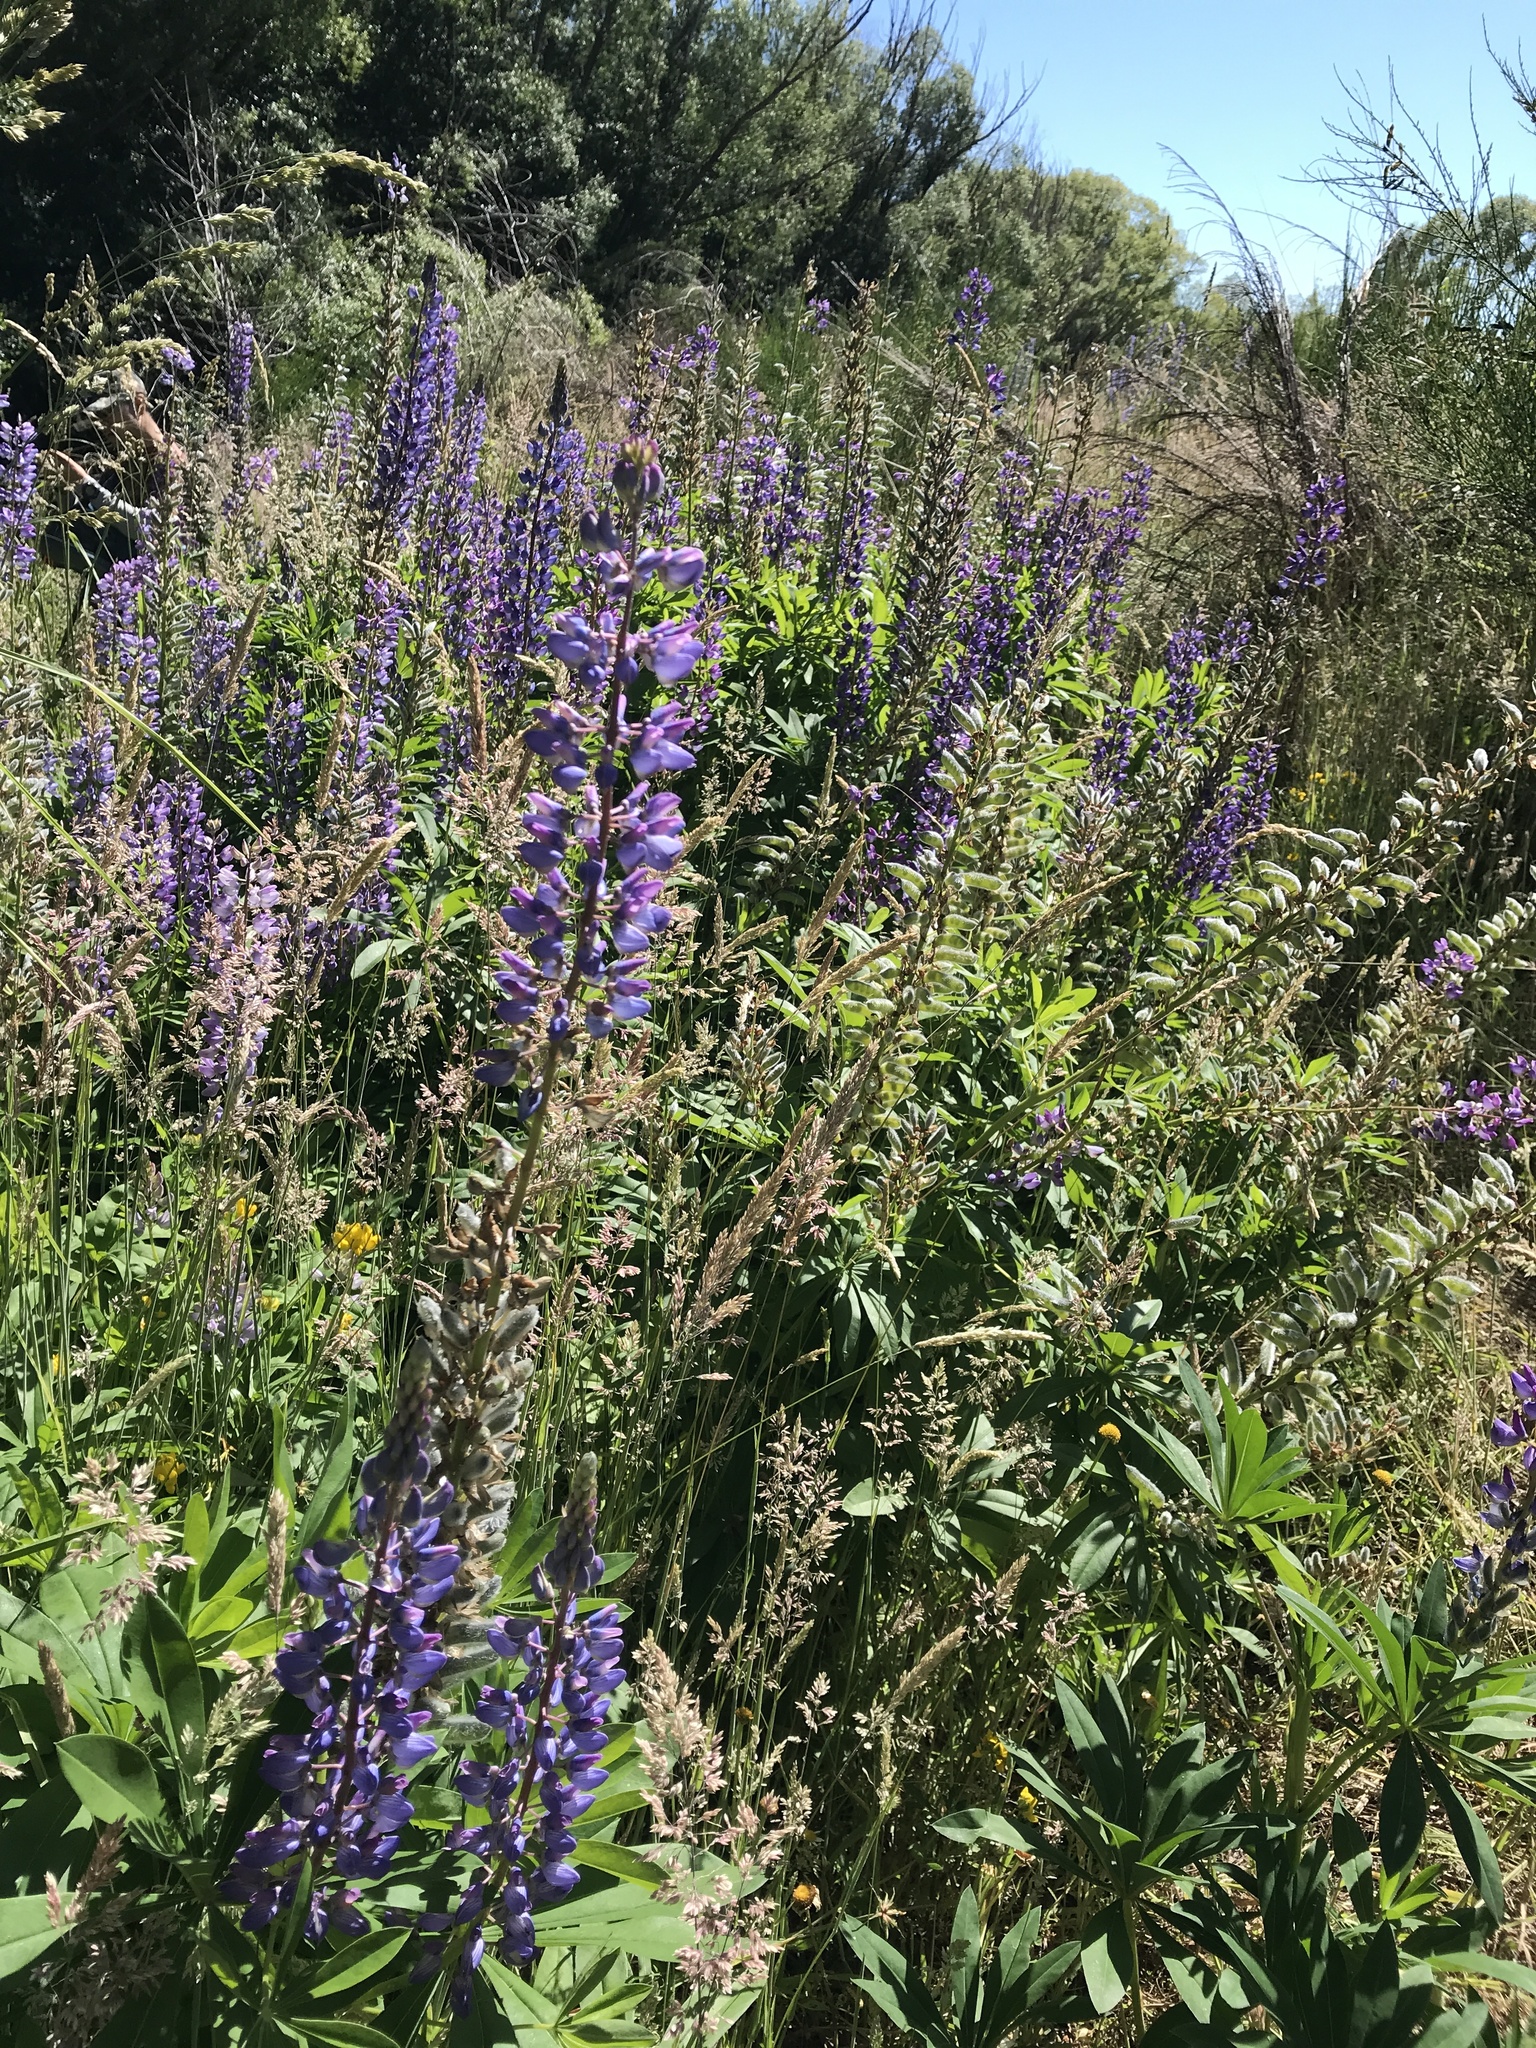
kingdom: Plantae
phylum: Tracheophyta
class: Magnoliopsida
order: Fabales
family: Fabaceae
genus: Lupinus
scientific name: Lupinus polyphyllus
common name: Garden lupin
